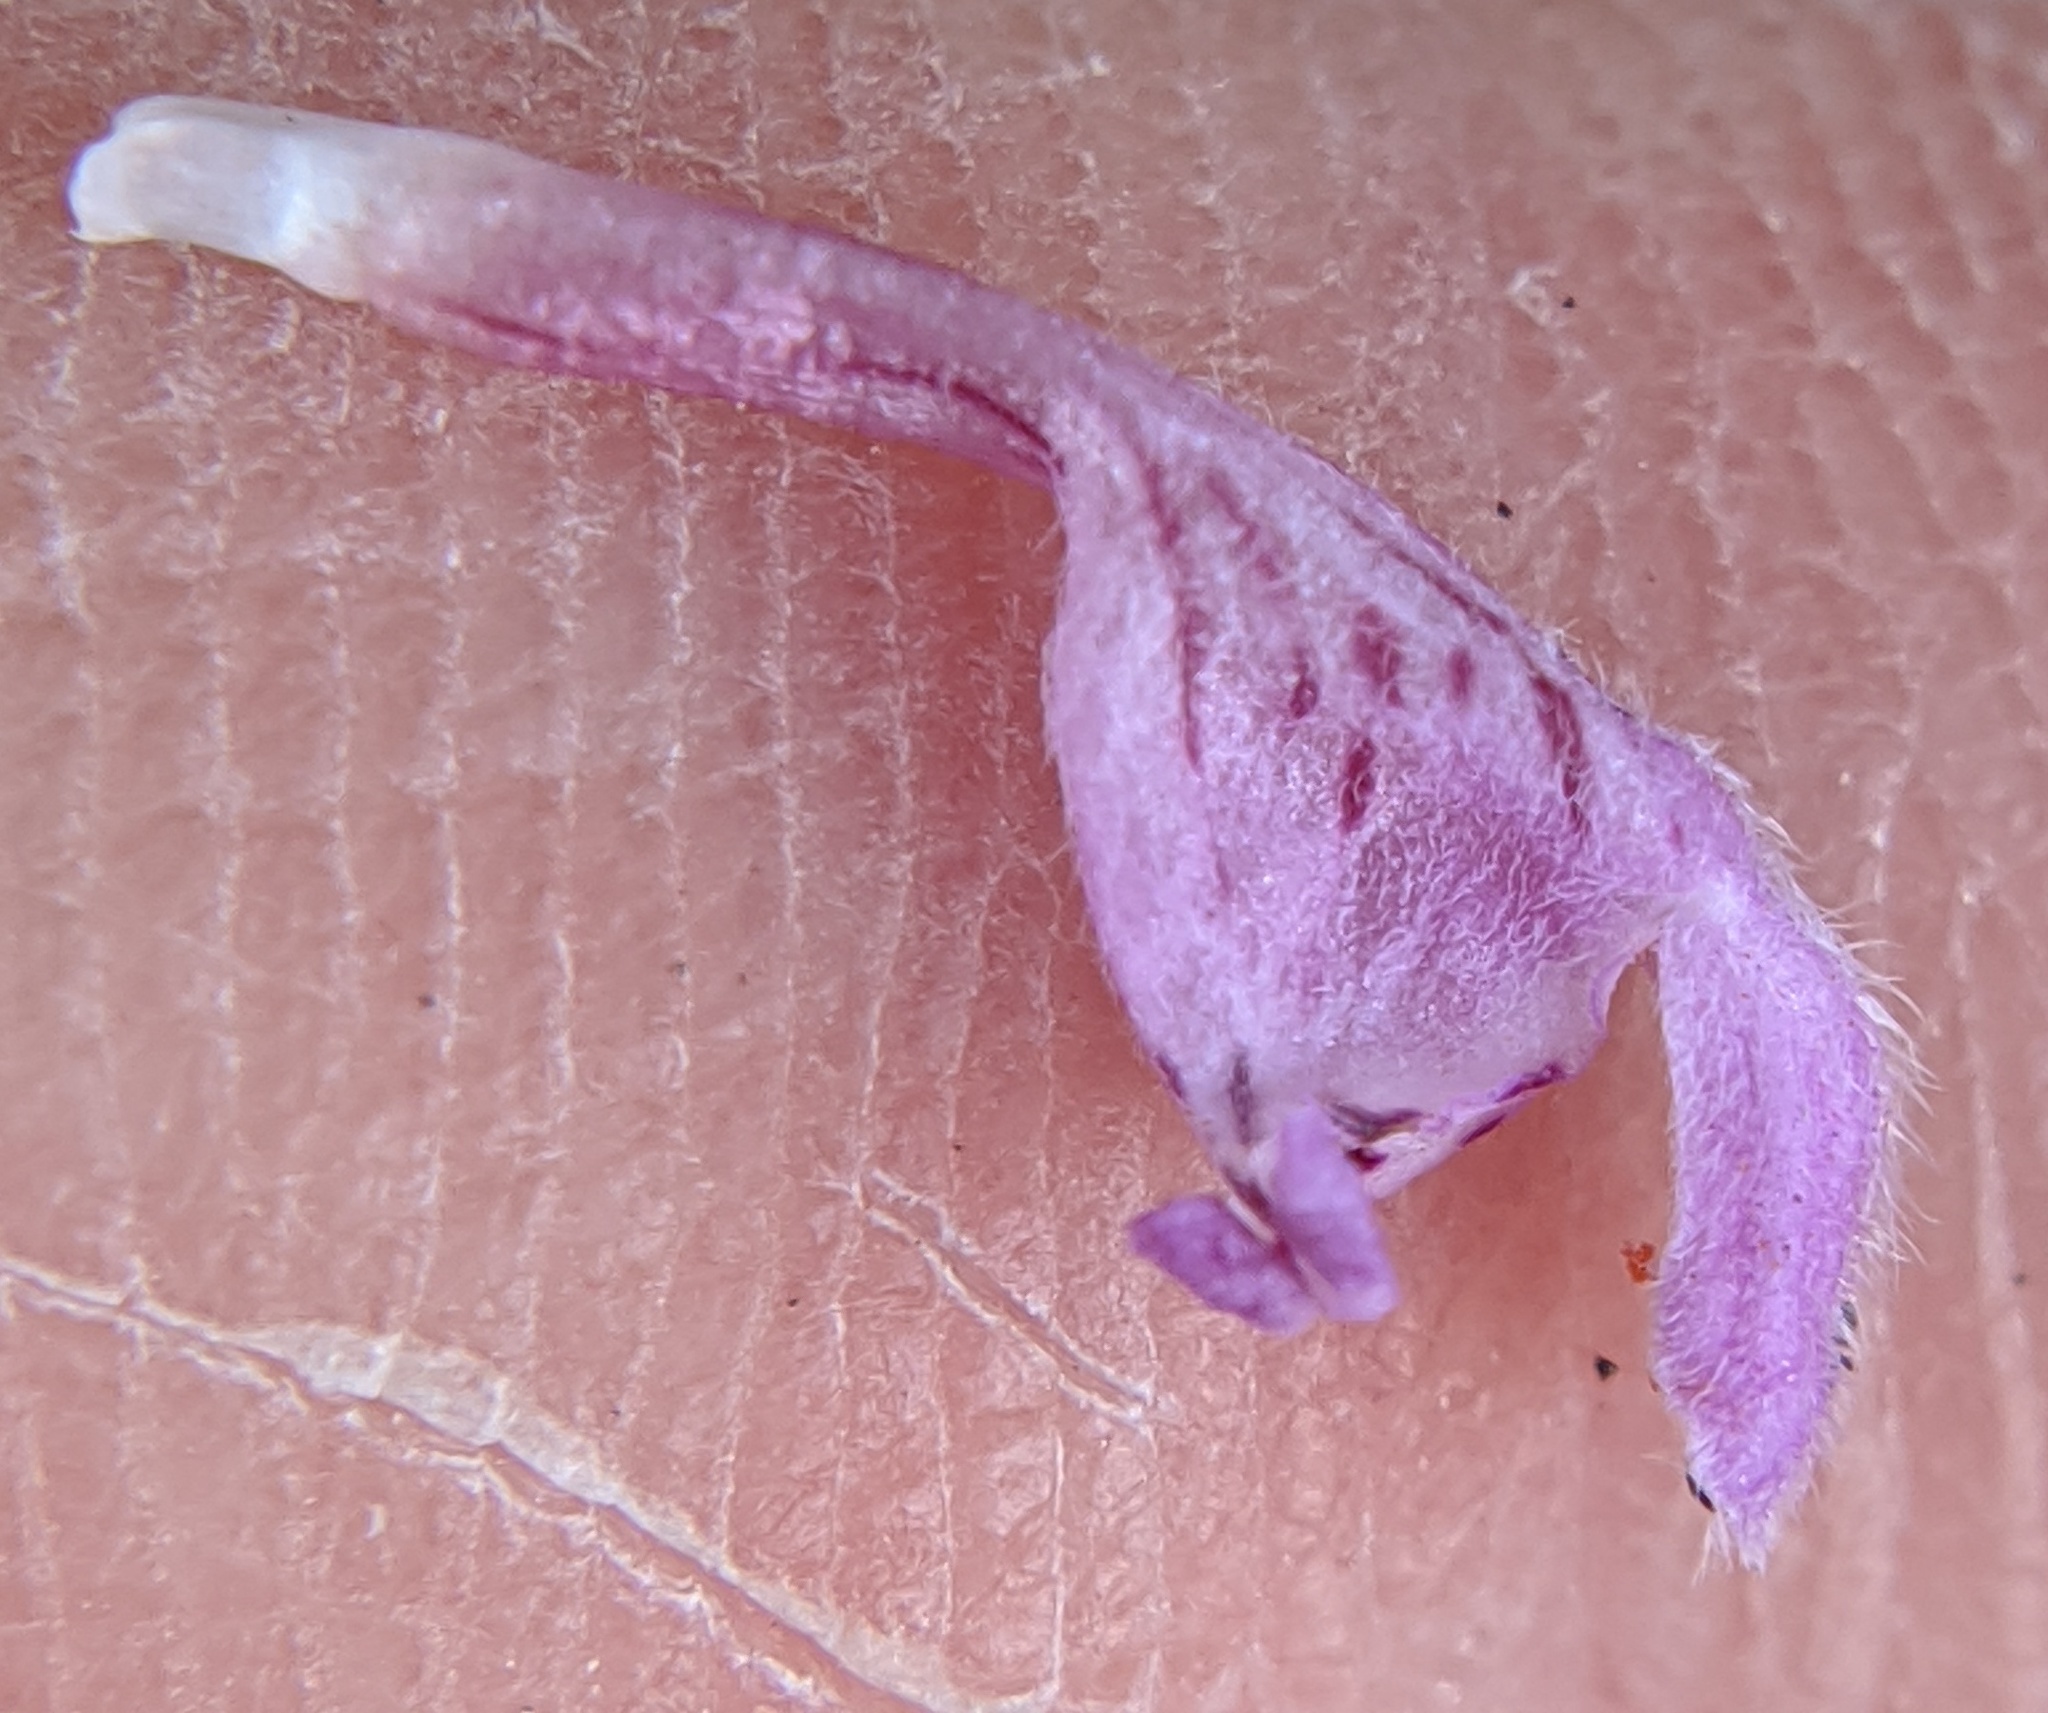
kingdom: Plantae
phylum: Tracheophyta
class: Magnoliopsida
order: Lamiales
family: Lamiaceae
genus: Lamium
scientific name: Lamium purpureum
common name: Red dead-nettle
